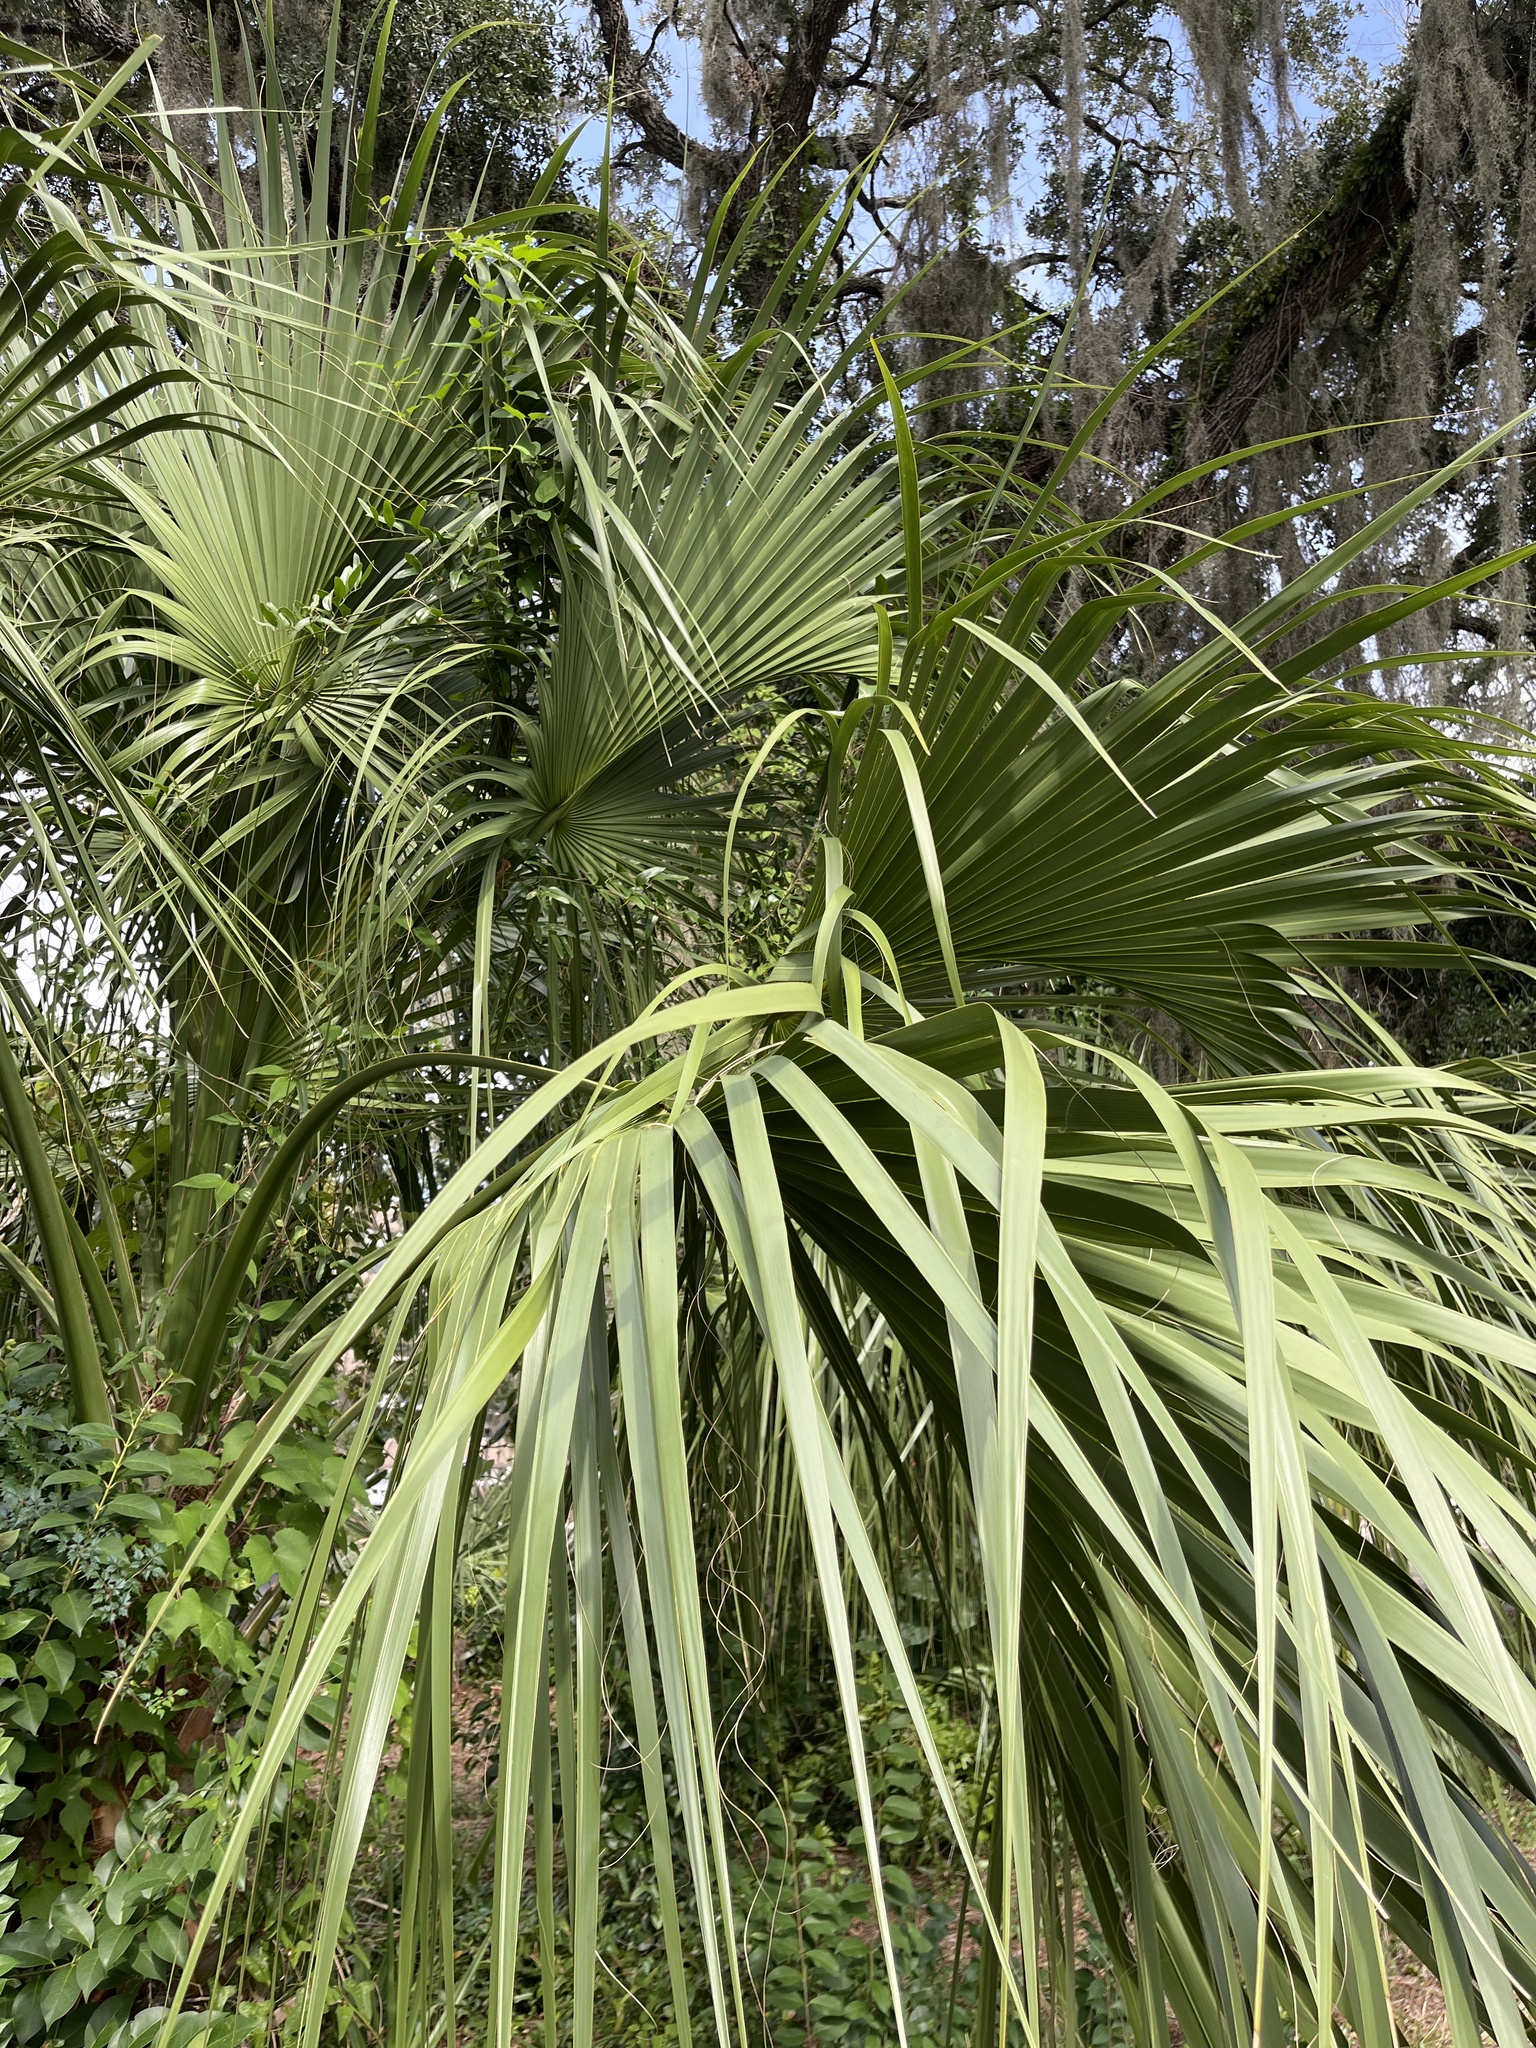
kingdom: Plantae
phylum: Tracheophyta
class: Liliopsida
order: Arecales
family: Arecaceae
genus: Sabal
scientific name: Sabal palmetto
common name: Blue palmetto
